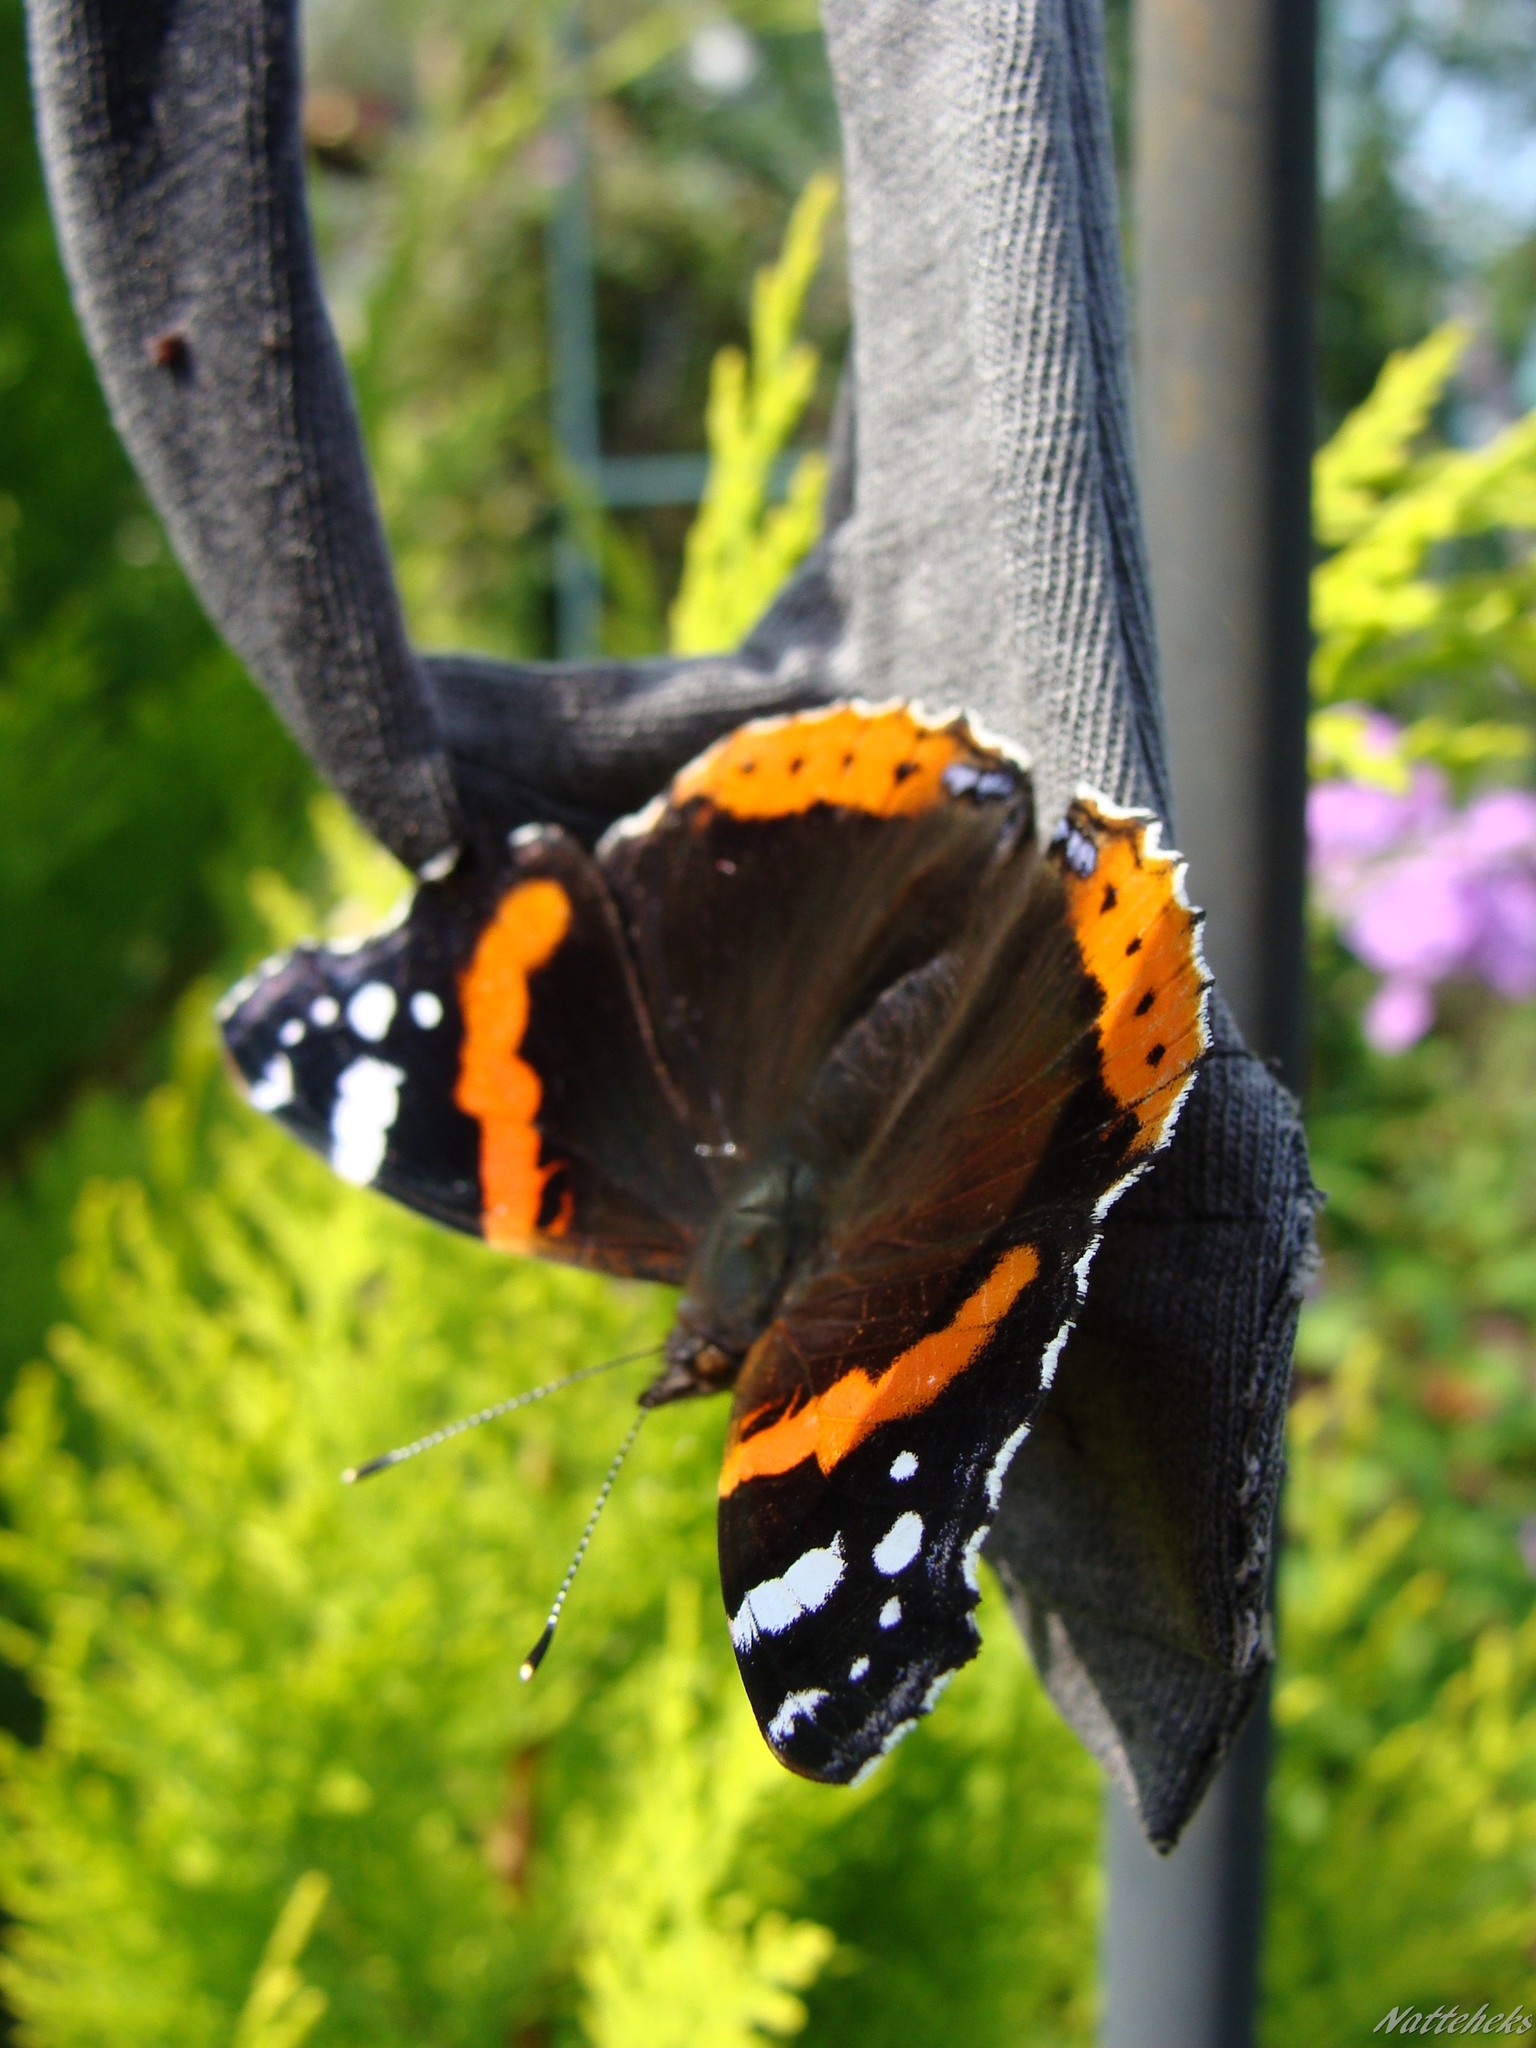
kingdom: Animalia
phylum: Arthropoda
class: Insecta
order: Lepidoptera
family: Nymphalidae
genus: Vanessa
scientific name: Vanessa atalanta
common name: Red admiral
